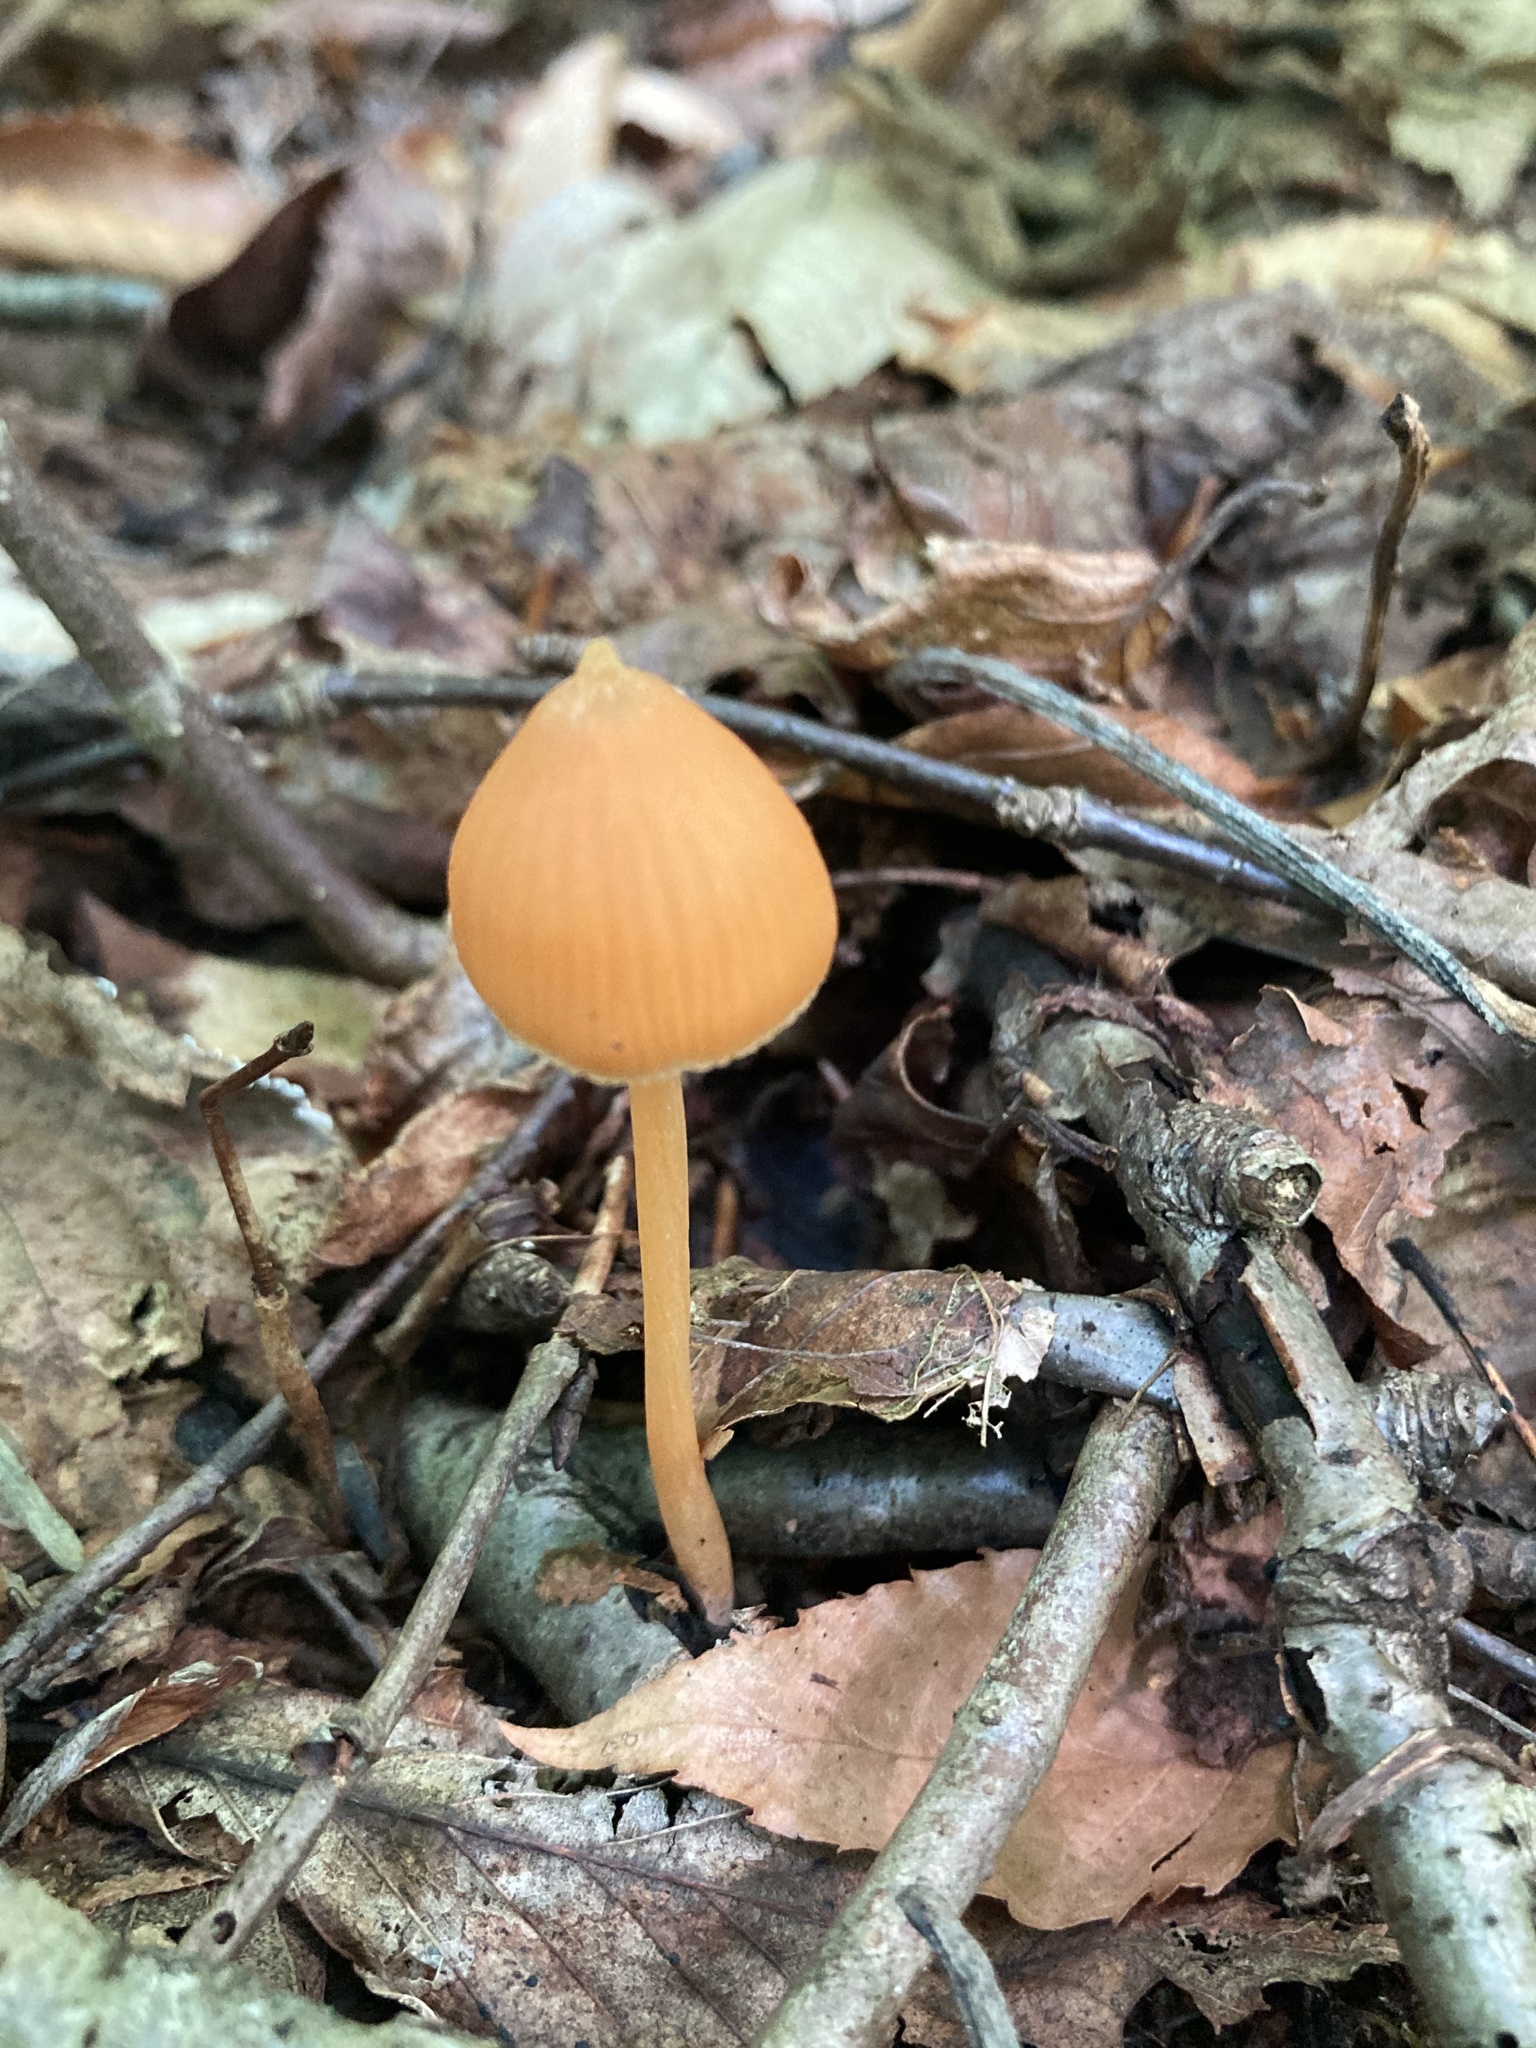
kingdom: Fungi
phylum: Basidiomycota
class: Agaricomycetes
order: Agaricales
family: Entolomataceae
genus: Entoloma
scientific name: Entoloma quadratum
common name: Salmon pinkgill
